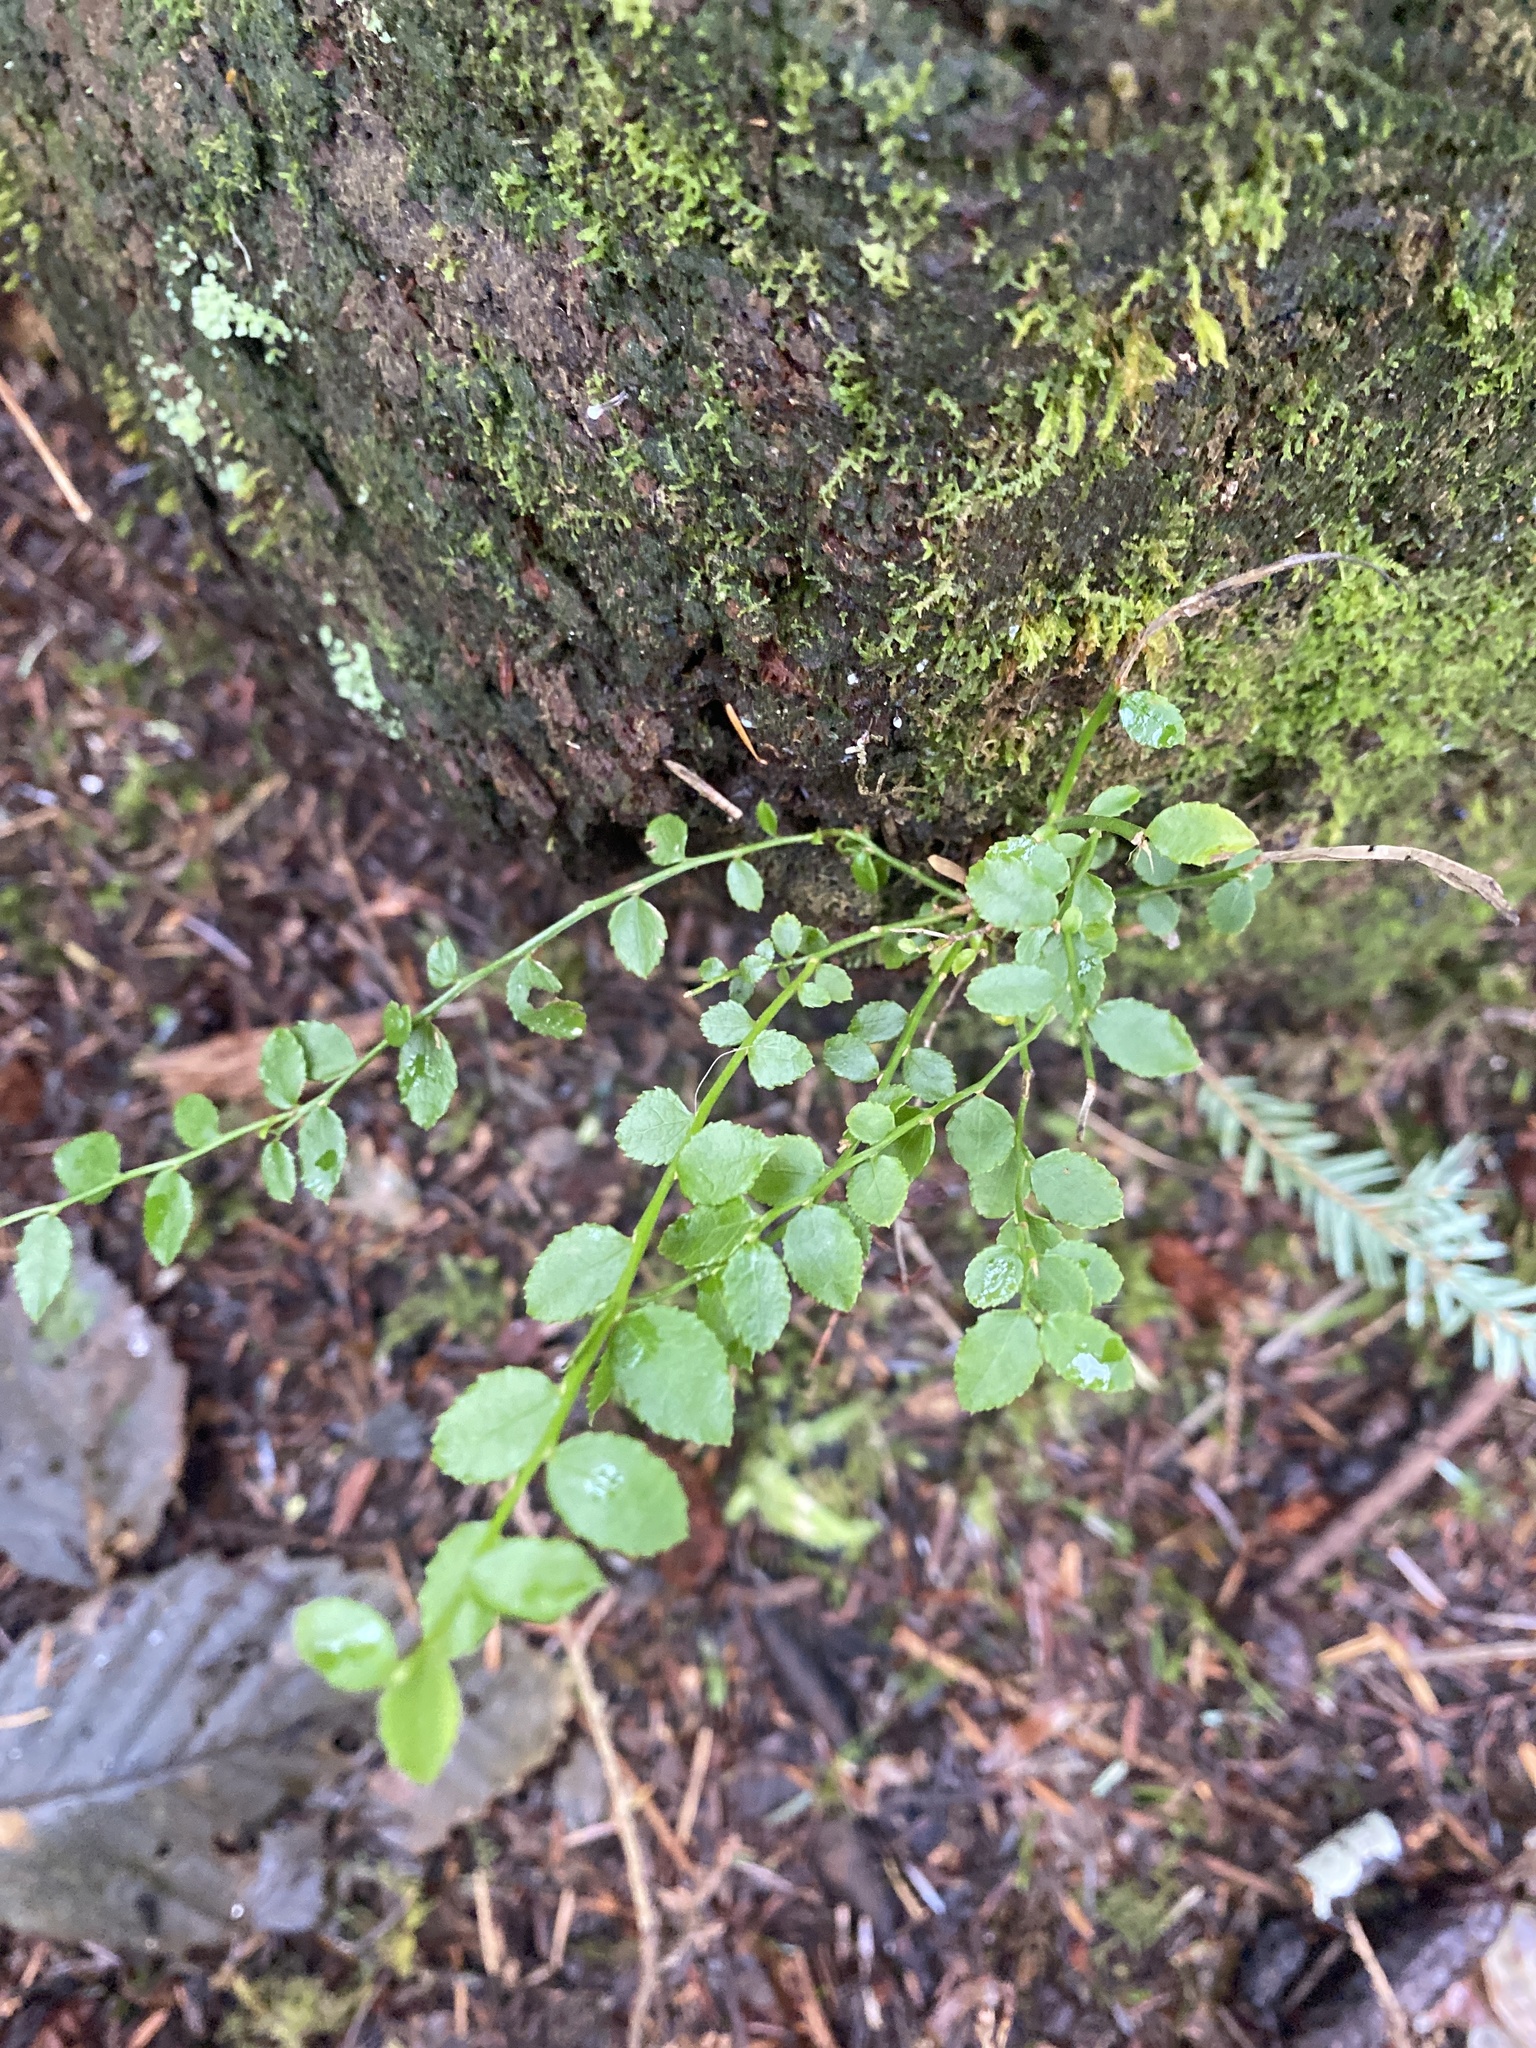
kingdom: Plantae
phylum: Tracheophyta
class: Magnoliopsida
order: Ericales
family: Ericaceae
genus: Vaccinium
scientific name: Vaccinium parvifolium
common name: Red-huckleberry
